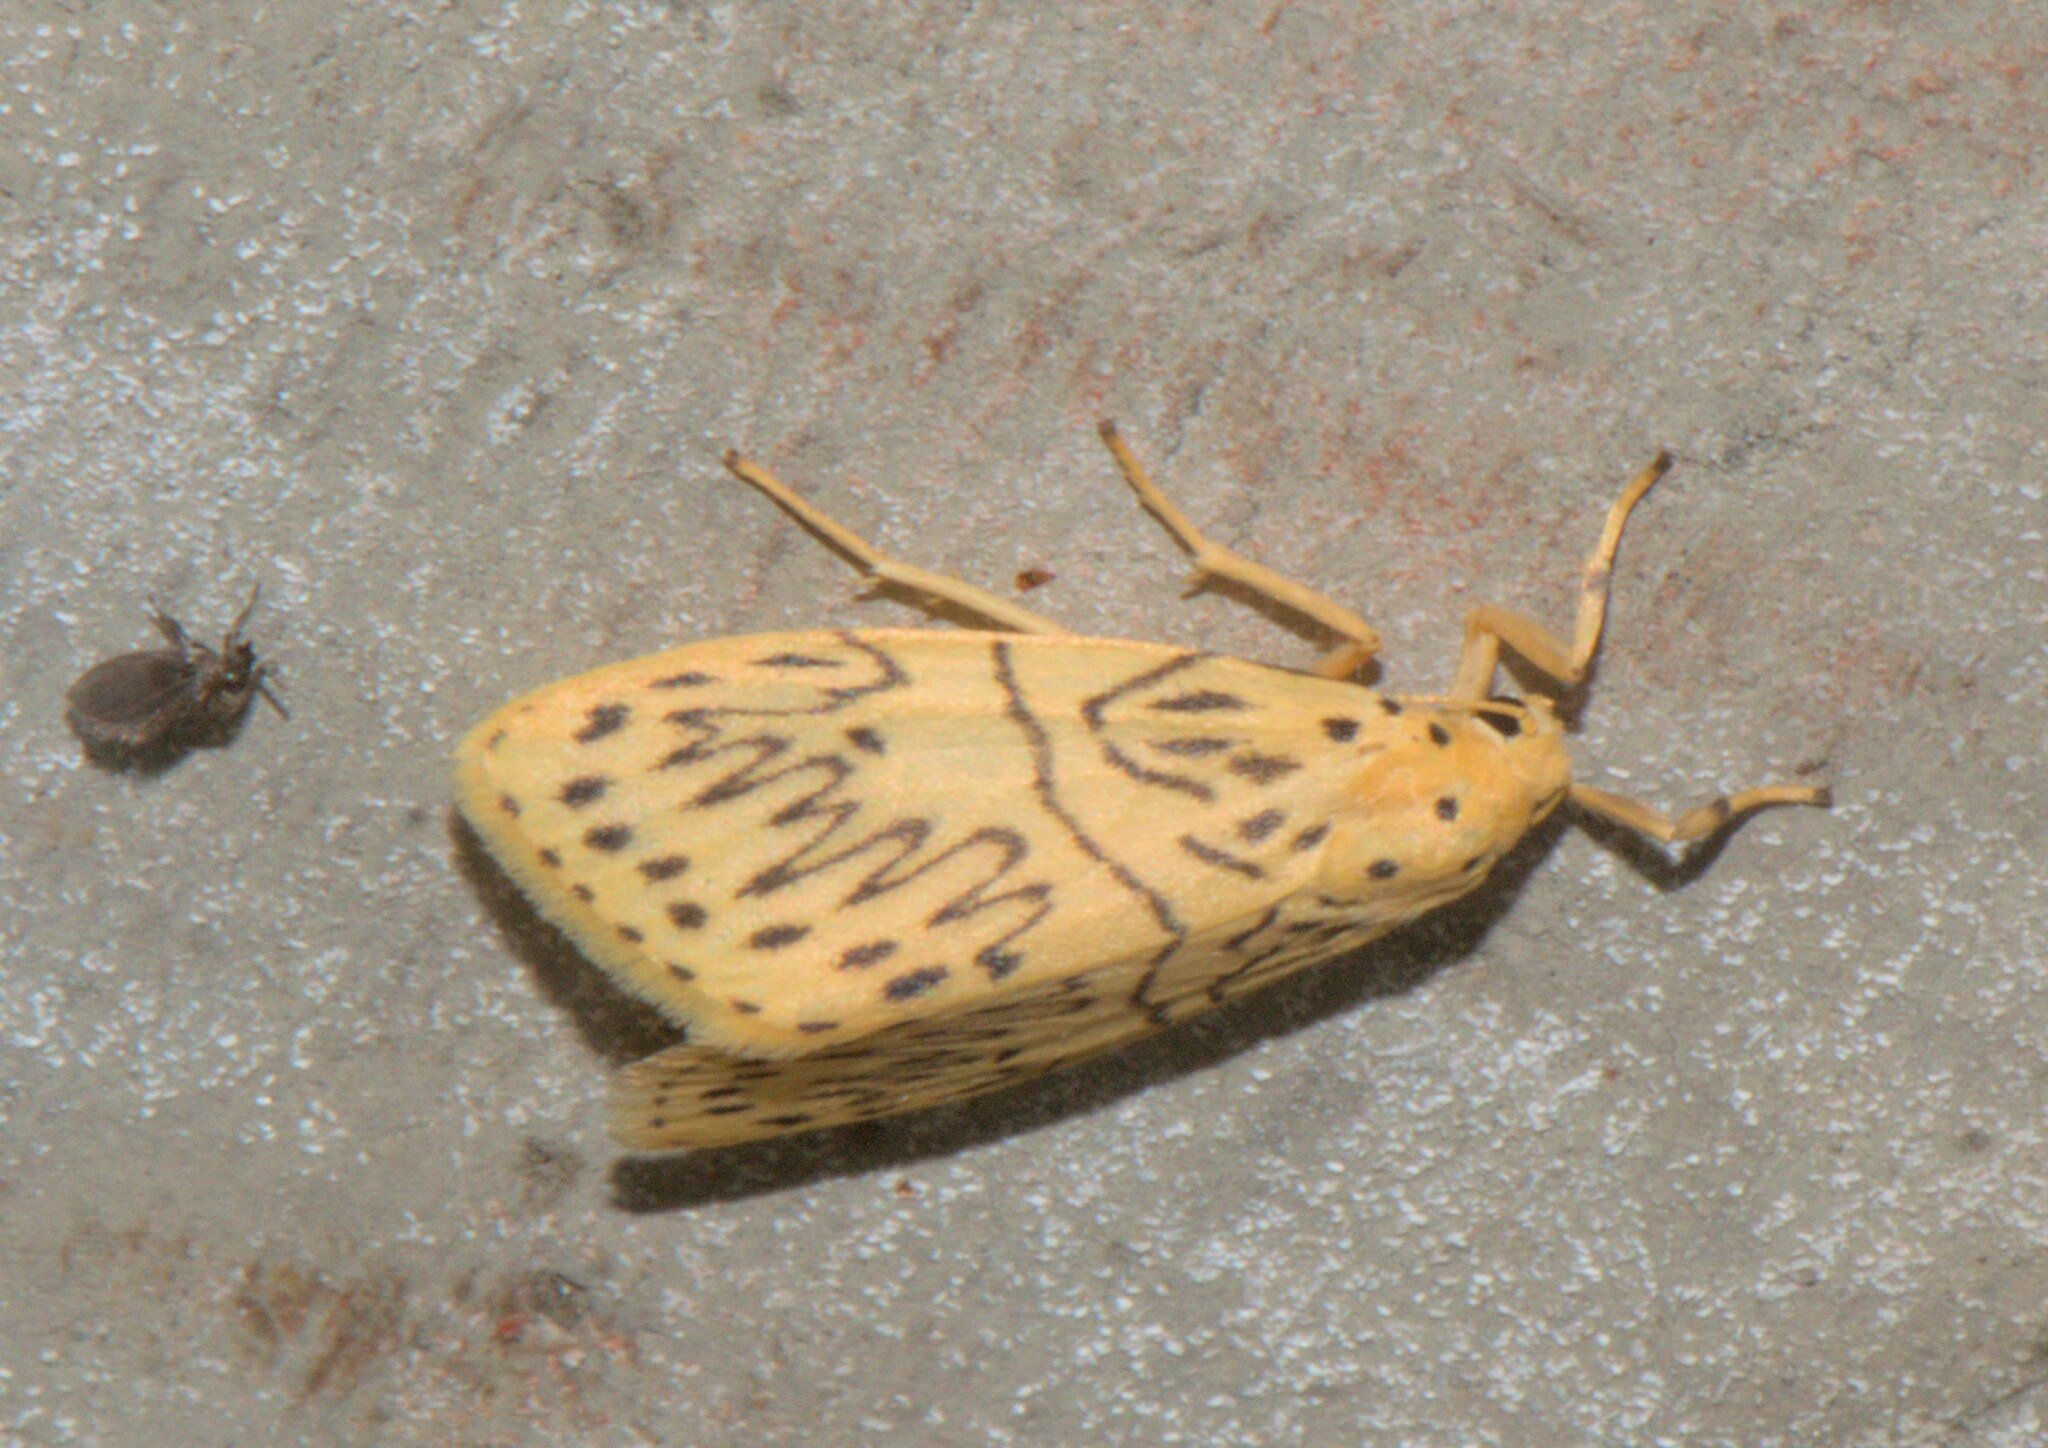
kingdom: Animalia
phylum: Arthropoda
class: Insecta
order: Lepidoptera
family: Erebidae
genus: Miltochrista
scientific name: Miltochrista undulosa
